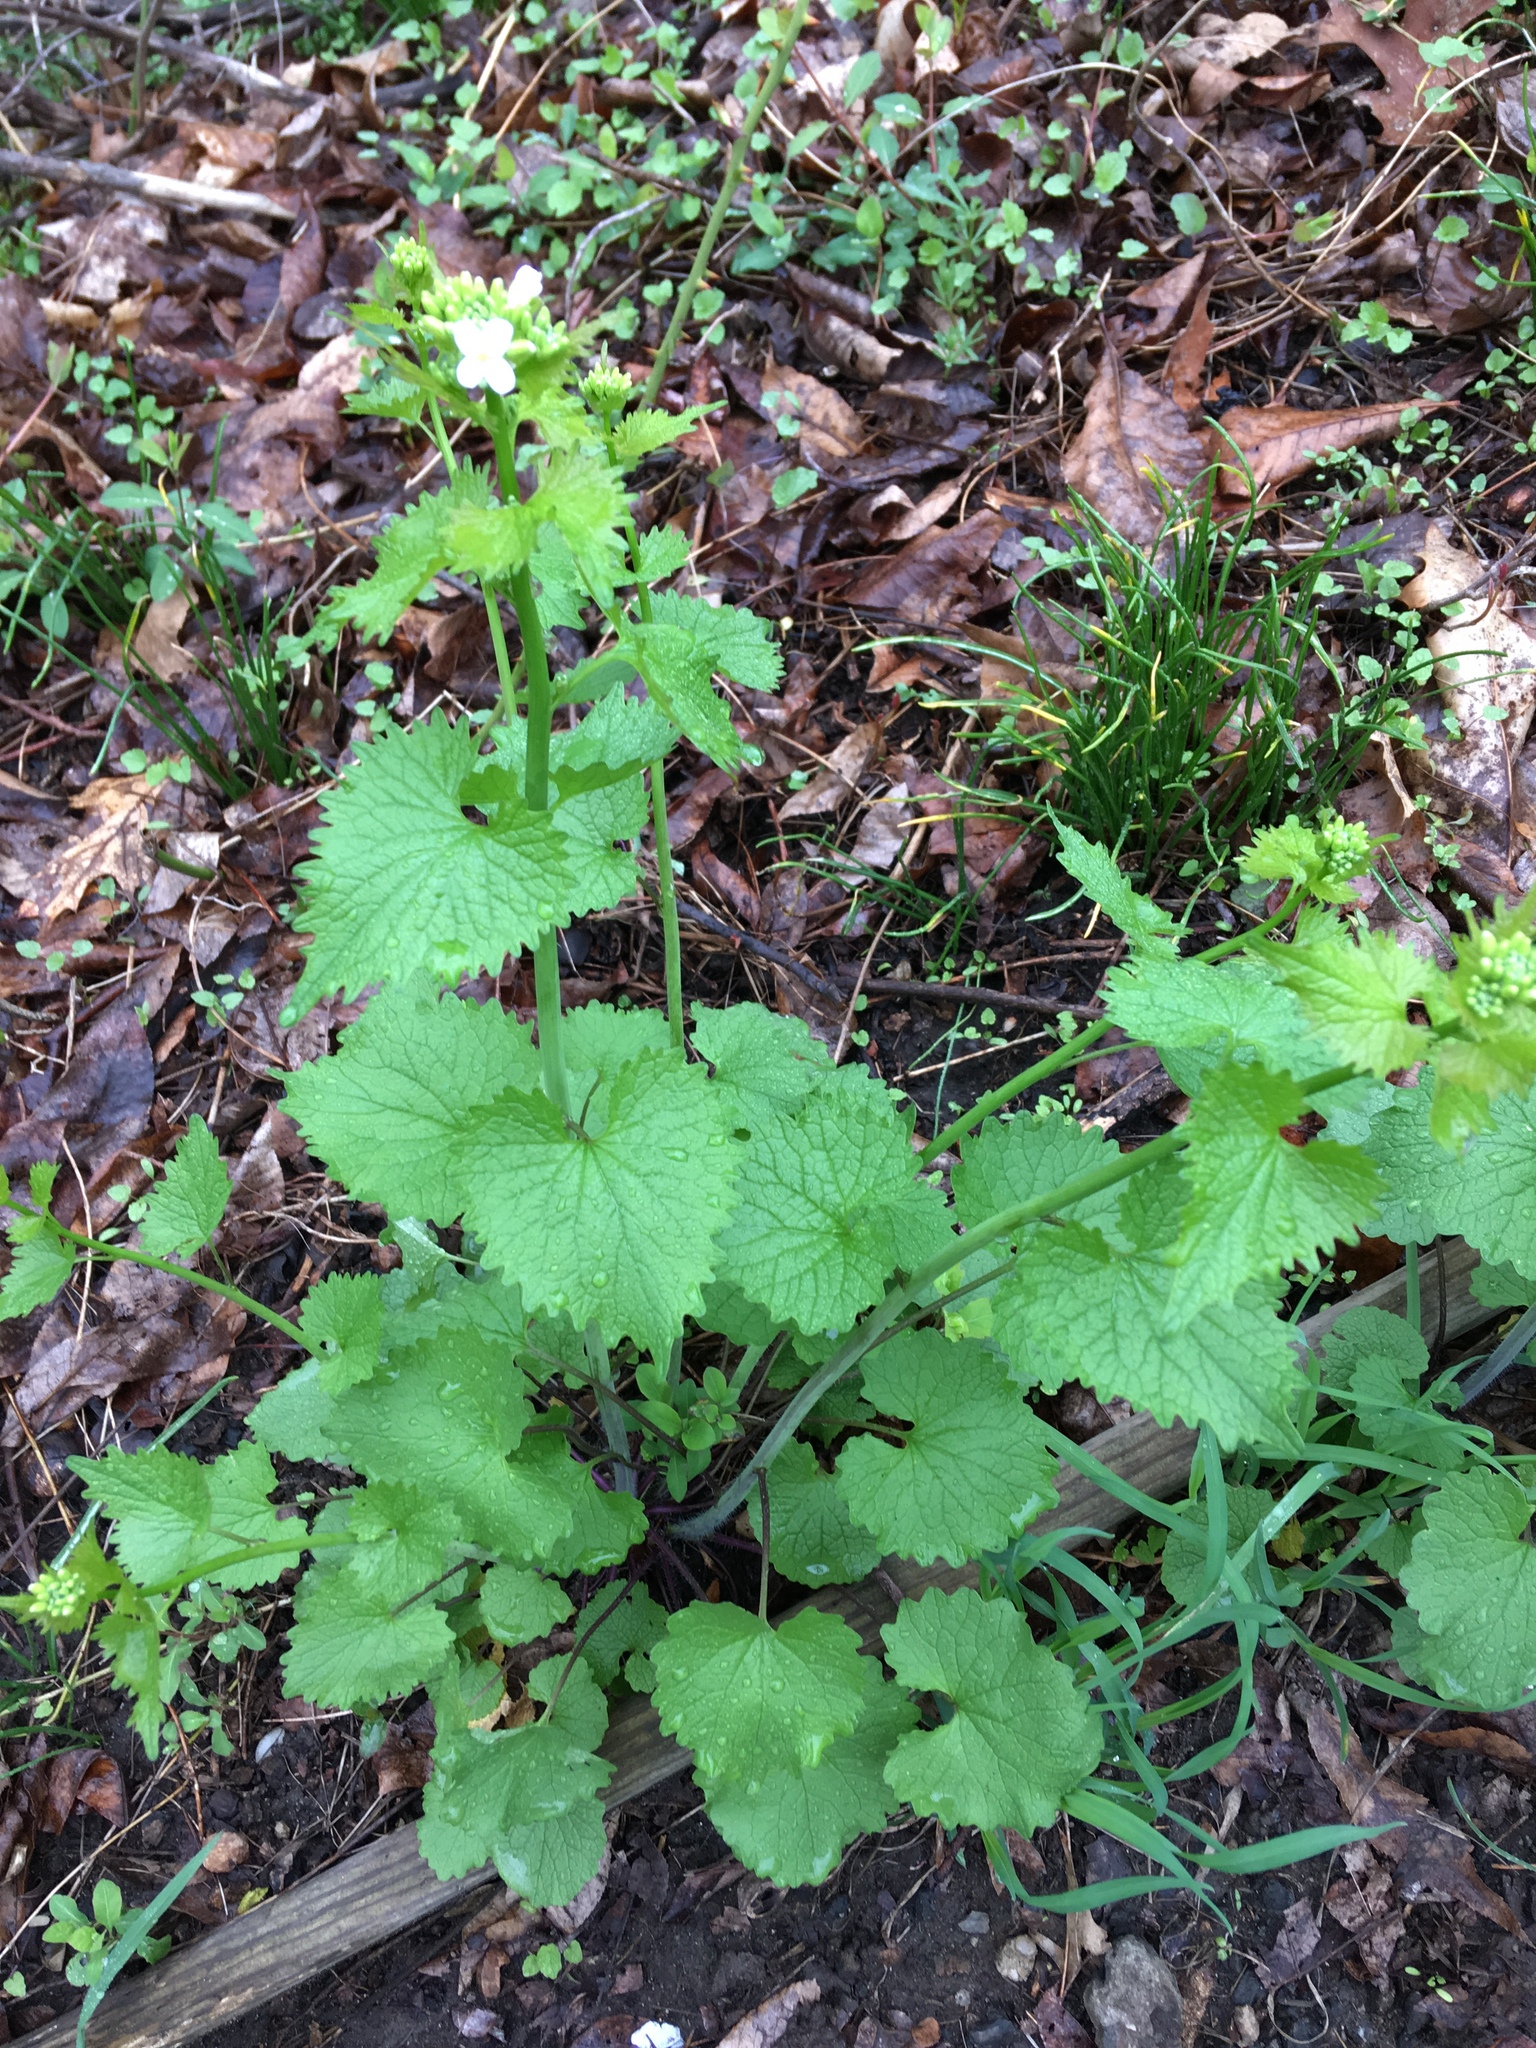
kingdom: Plantae
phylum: Tracheophyta
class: Magnoliopsida
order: Brassicales
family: Brassicaceae
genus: Alliaria
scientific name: Alliaria petiolata
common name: Garlic mustard
